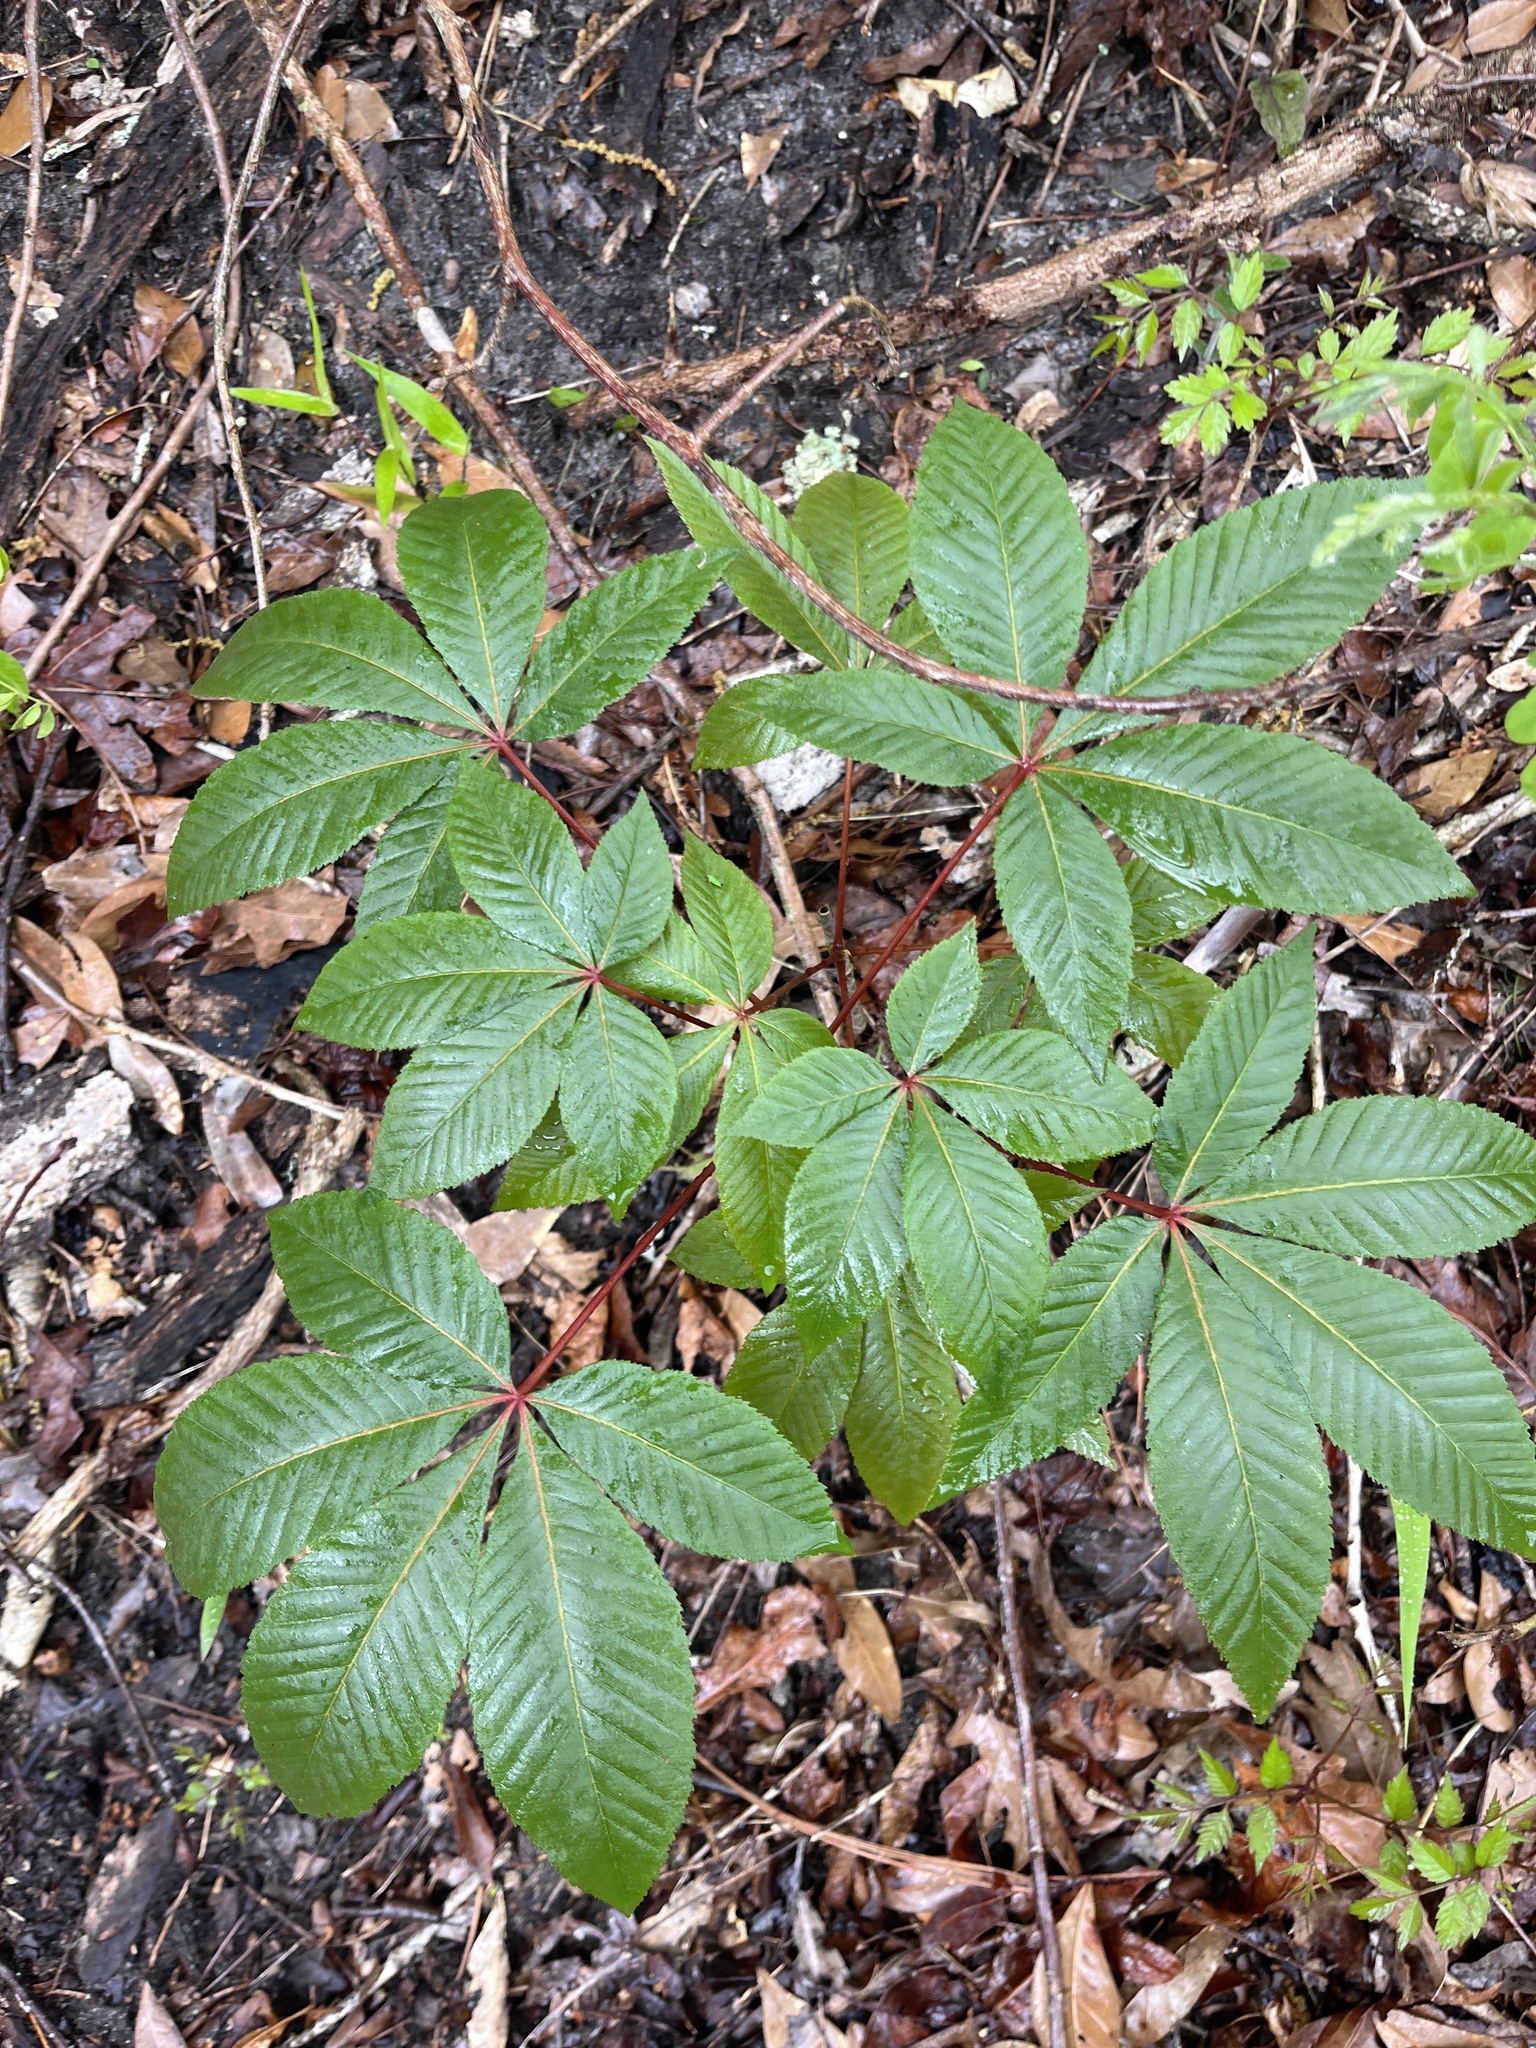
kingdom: Plantae
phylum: Tracheophyta
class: Magnoliopsida
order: Sapindales
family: Sapindaceae
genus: Aesculus
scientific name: Aesculus pavia
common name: Red buckeye
